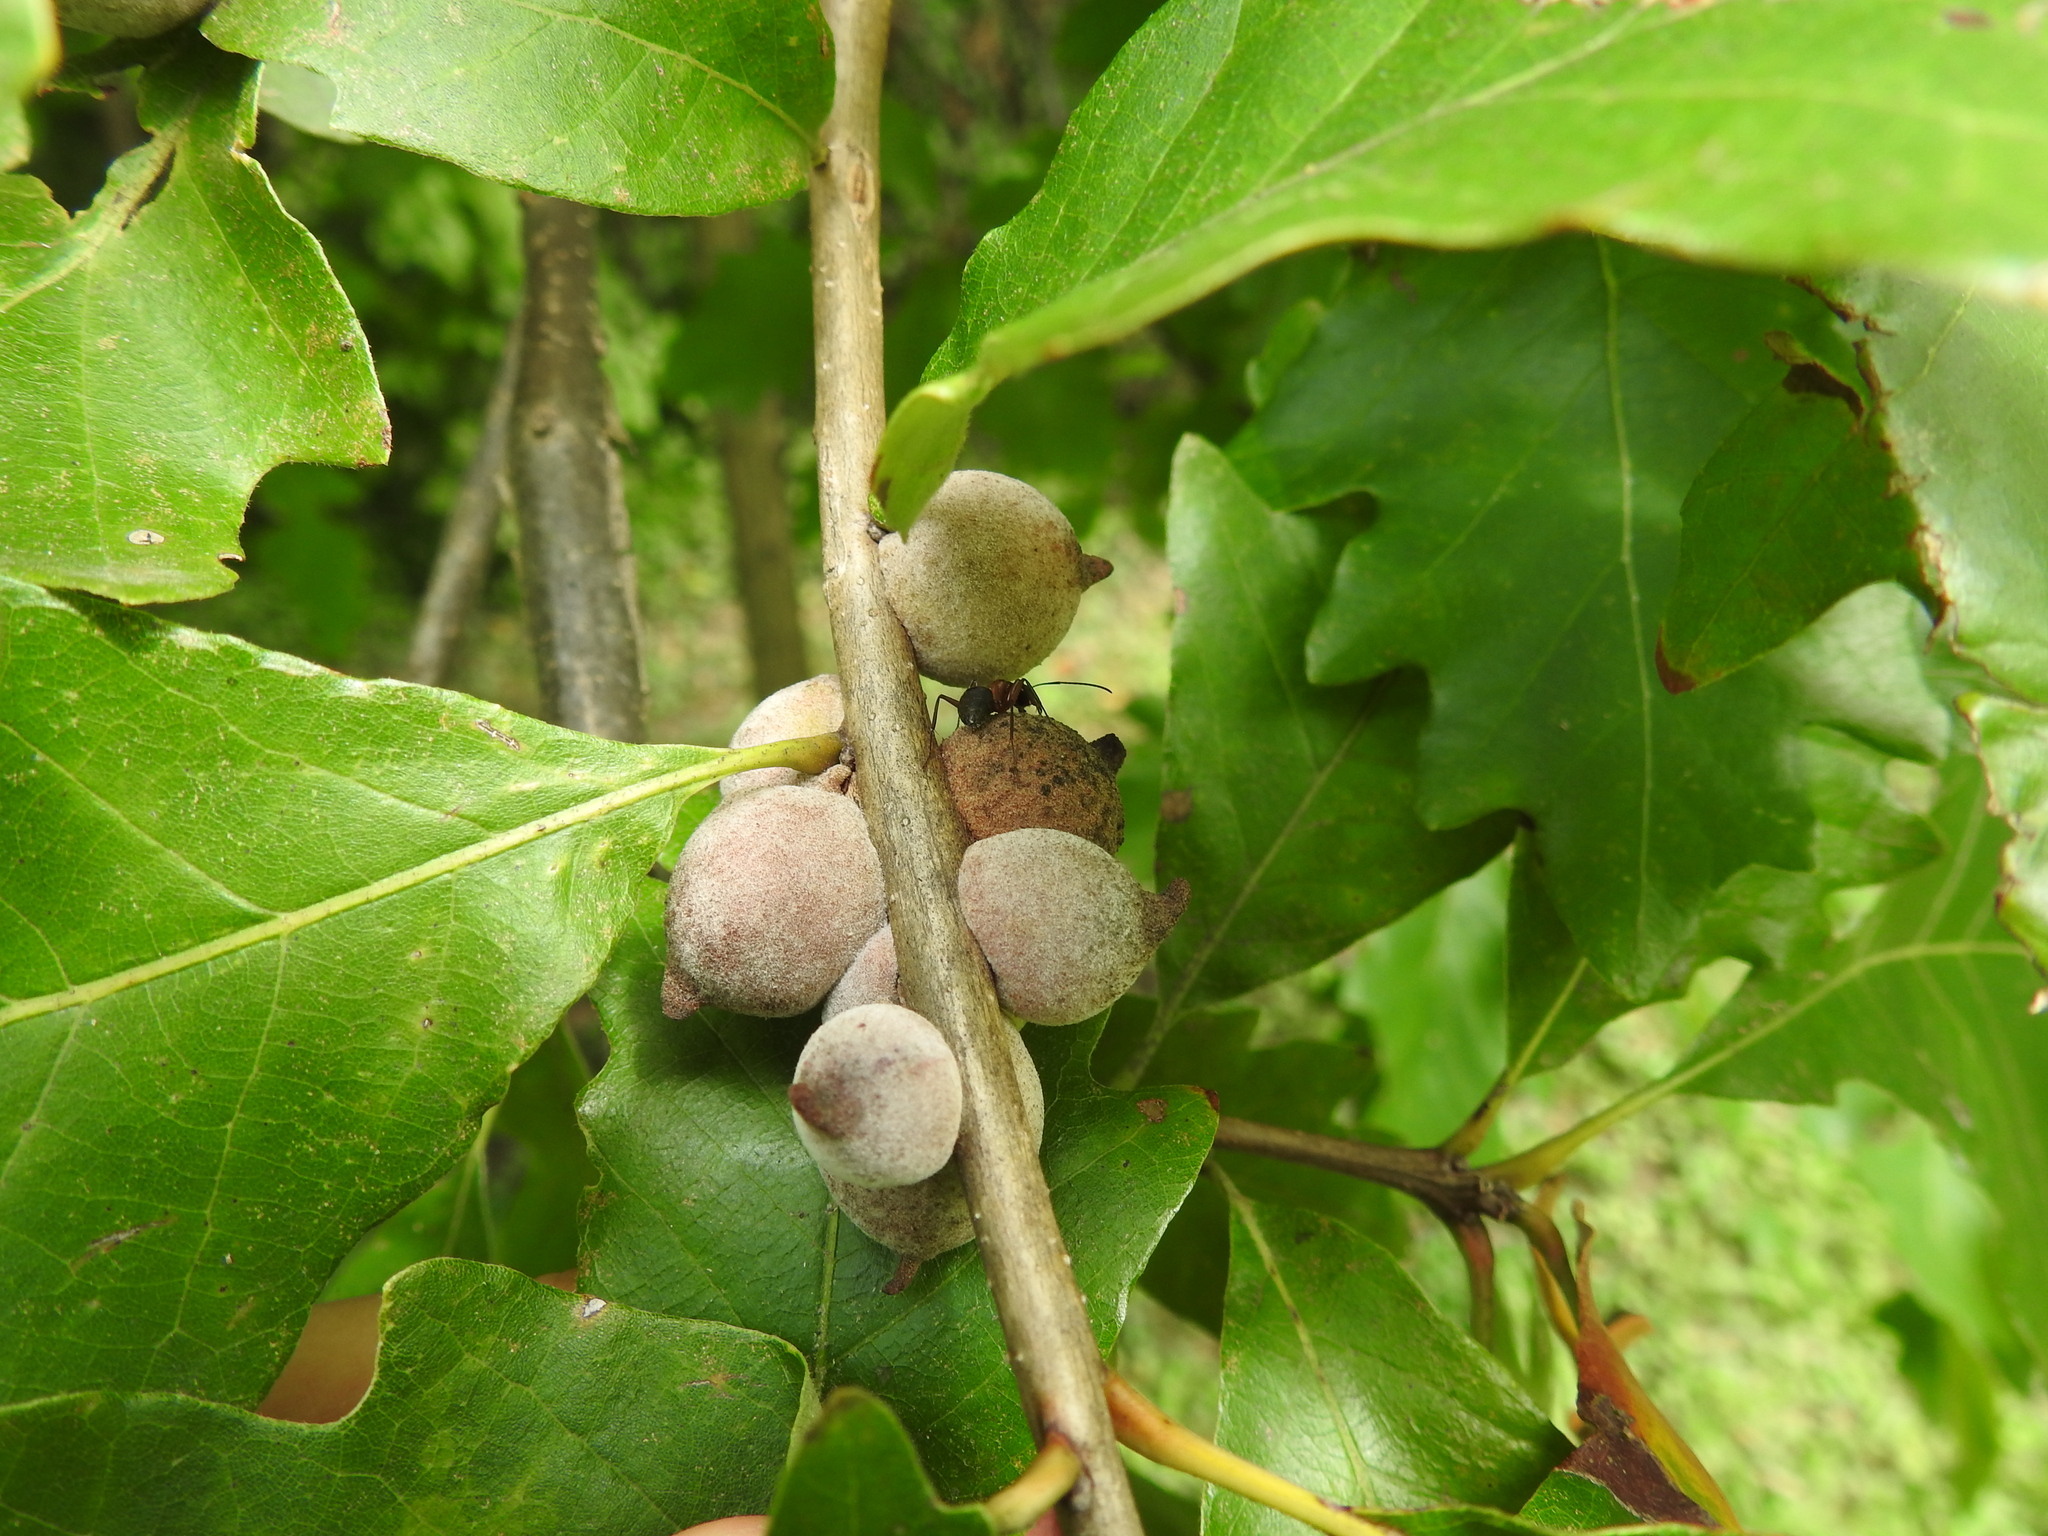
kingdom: Animalia
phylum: Arthropoda
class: Insecta
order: Hymenoptera
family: Cynipidae
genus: Disholcaspis
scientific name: Disholcaspis
